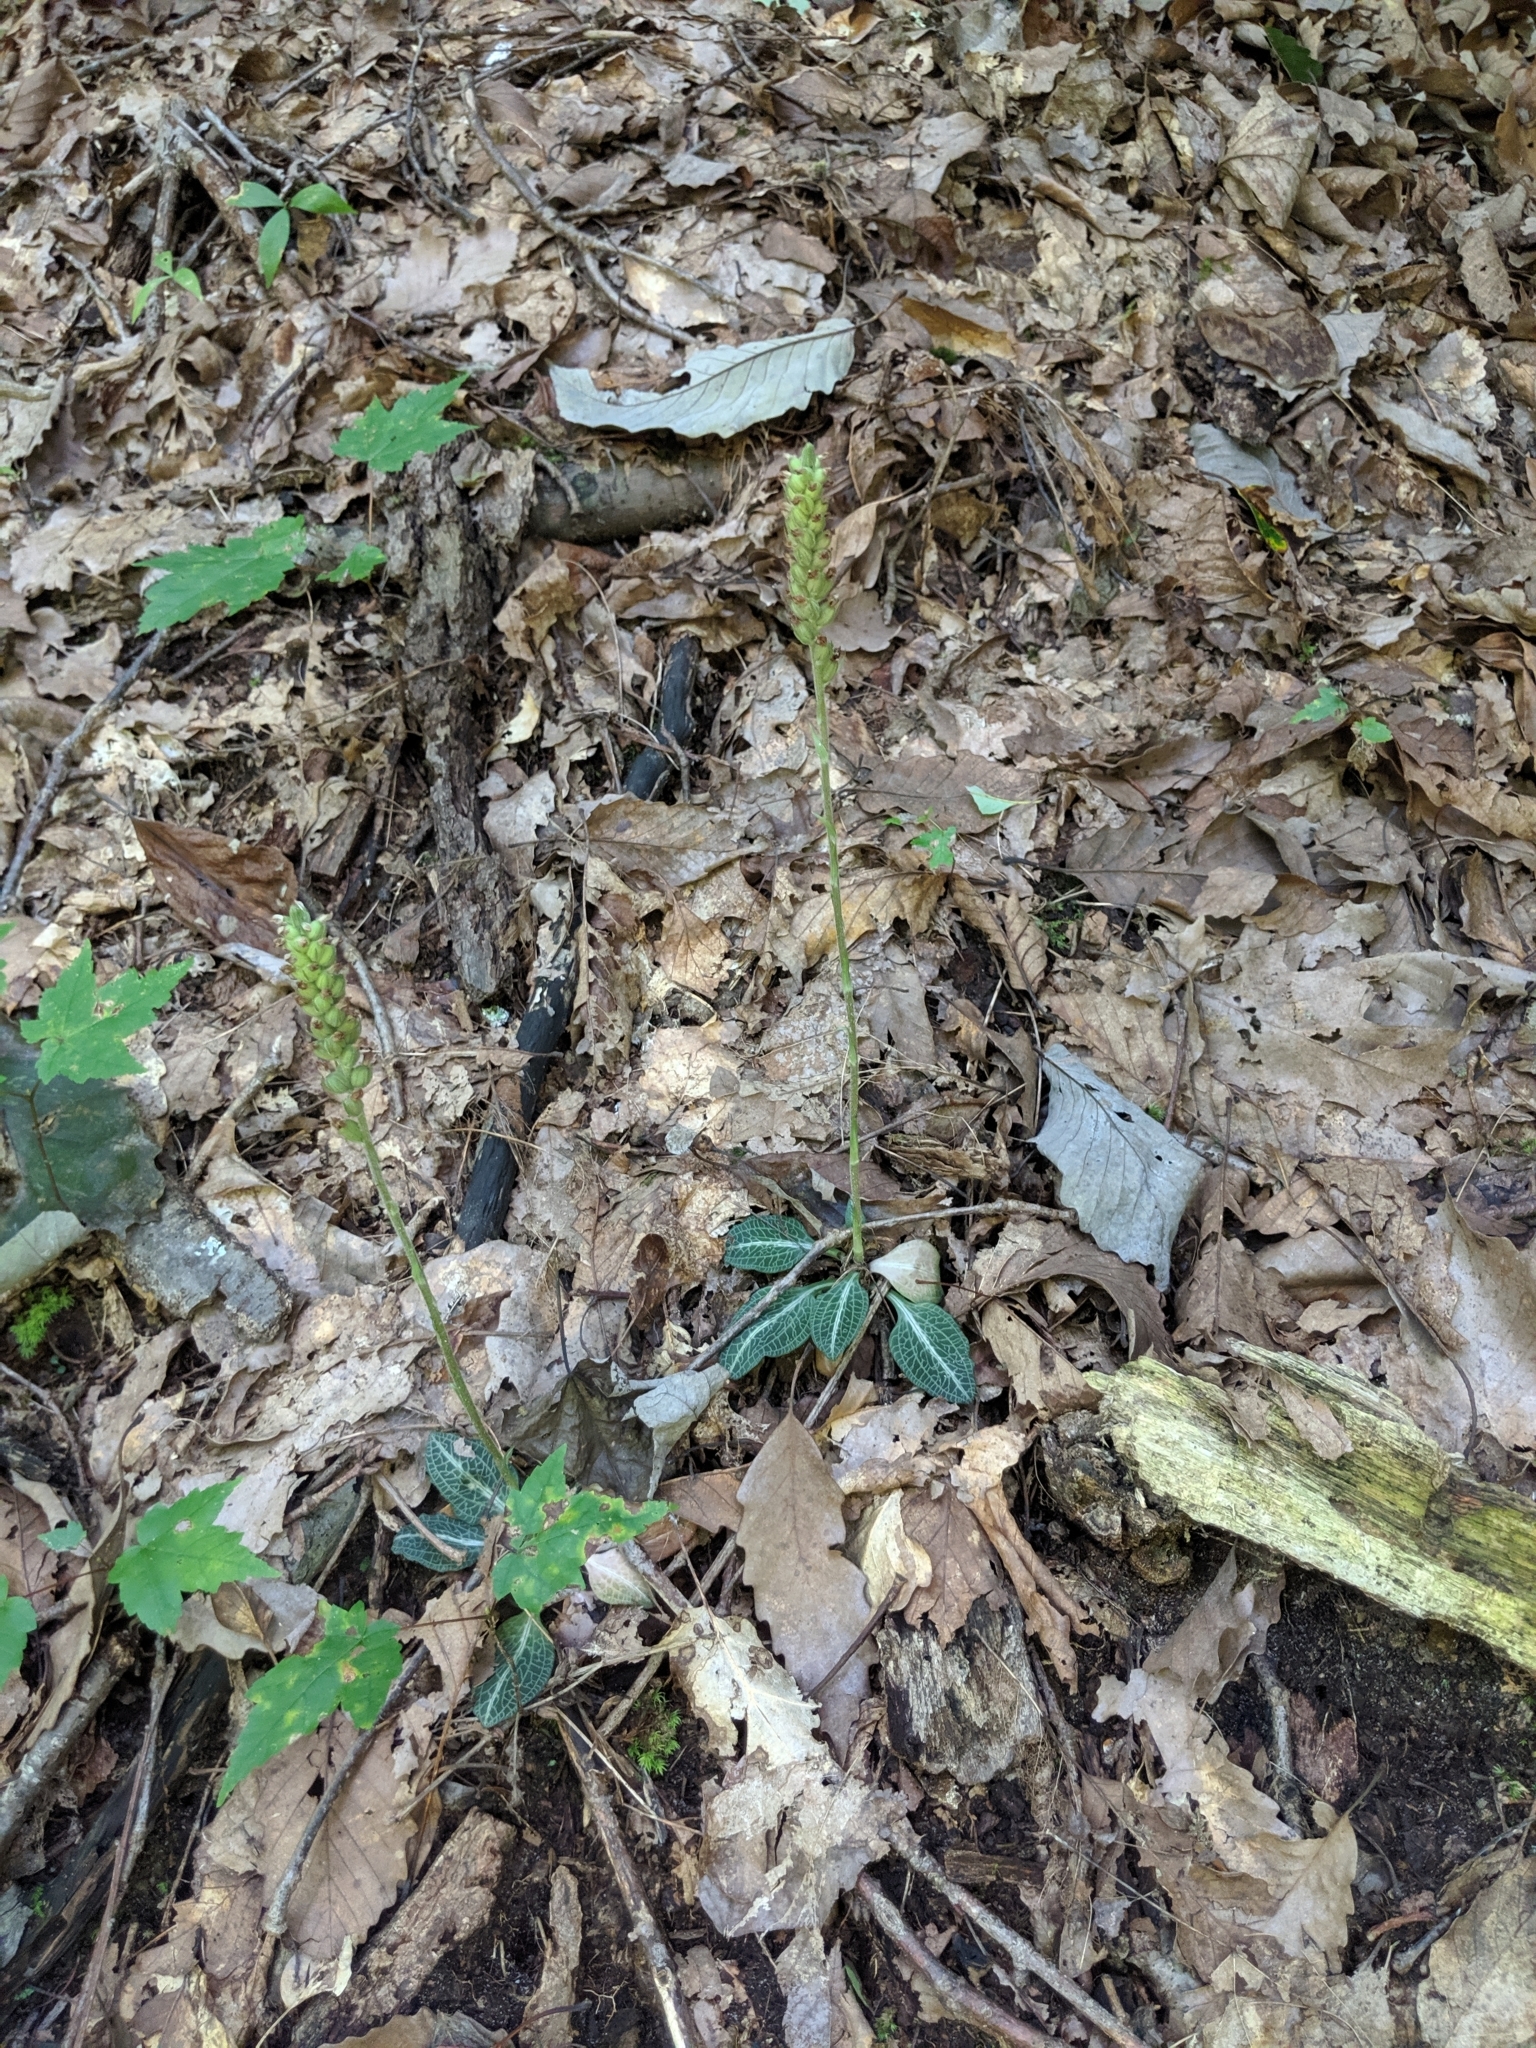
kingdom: Plantae
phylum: Tracheophyta
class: Liliopsida
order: Asparagales
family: Orchidaceae
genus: Goodyera
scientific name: Goodyera pubescens
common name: Downy rattlesnake-plantain
